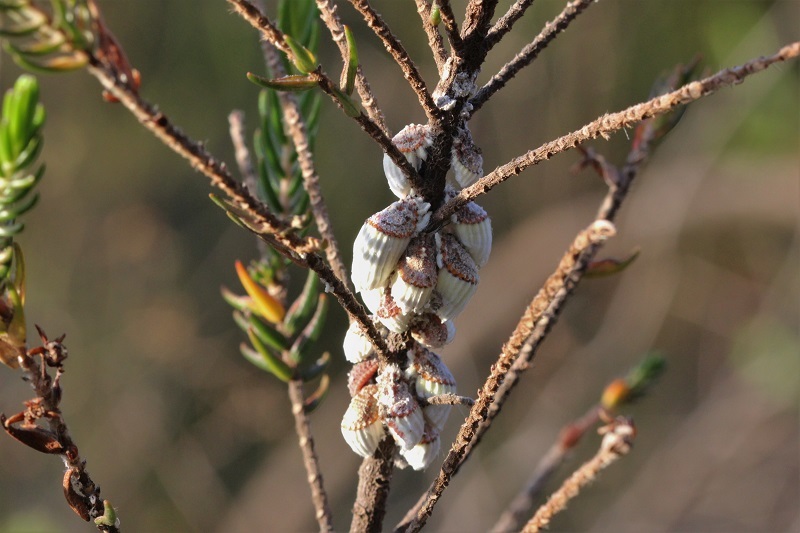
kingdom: Animalia
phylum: Arthropoda
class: Insecta
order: Hemiptera
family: Margarodidae
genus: Icerya
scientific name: Icerya purchasi
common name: Cottony cushion scale
